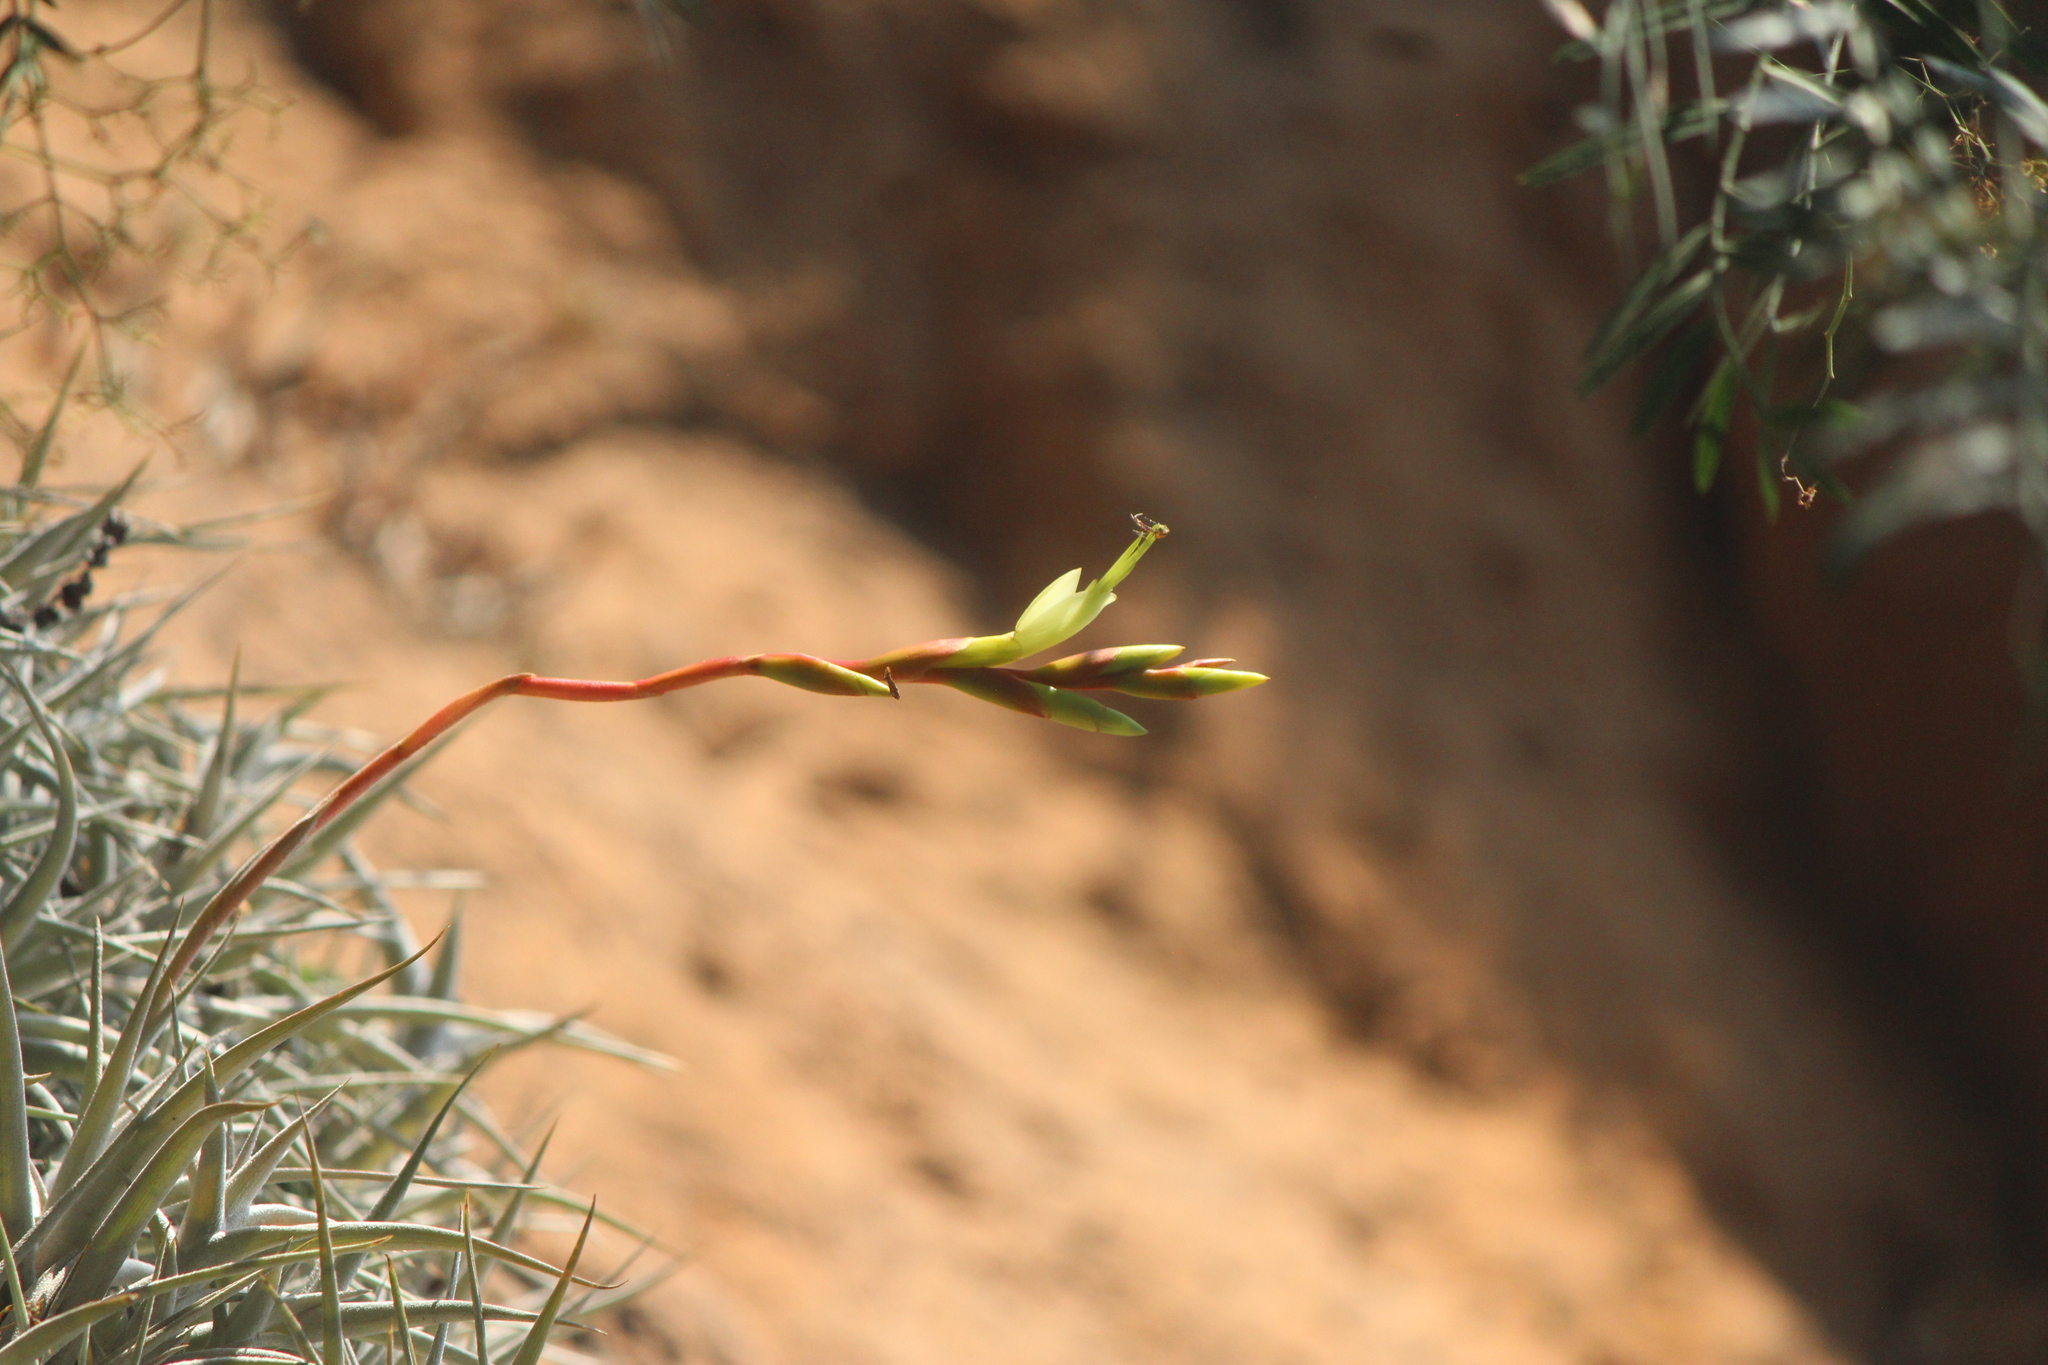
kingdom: Plantae
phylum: Tracheophyta
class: Liliopsida
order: Poales
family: Bromeliaceae
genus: Tillandsia
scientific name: Tillandsia albida
